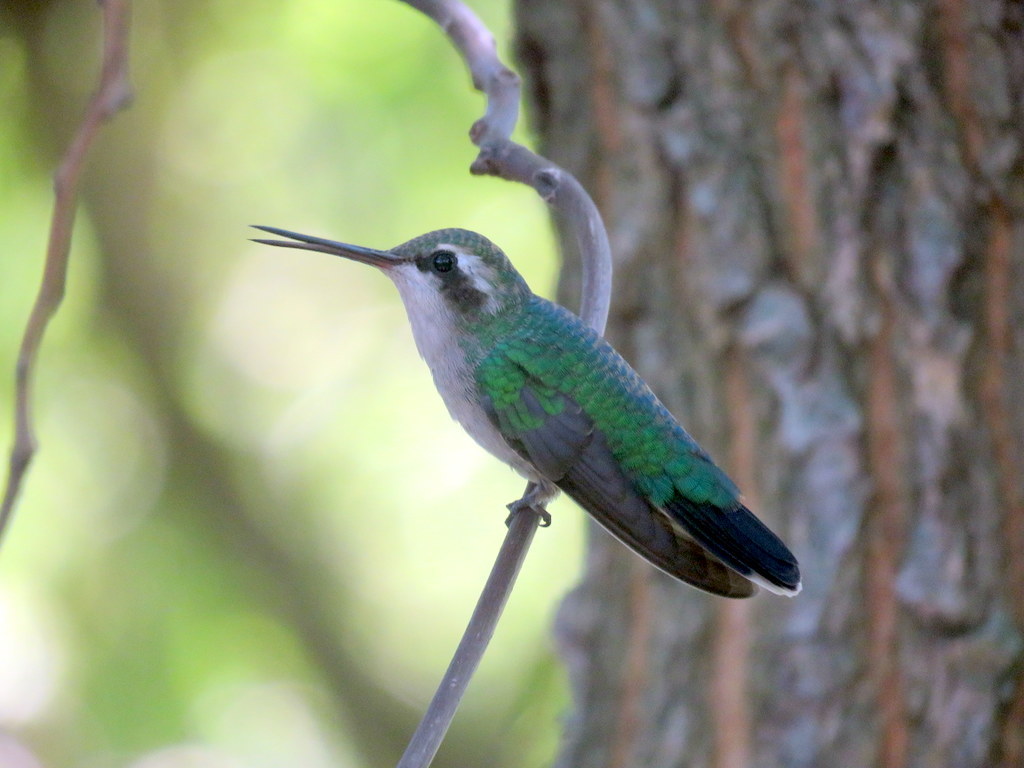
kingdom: Animalia
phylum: Chordata
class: Aves
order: Apodiformes
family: Trochilidae
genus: Chlorostilbon
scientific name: Chlorostilbon lucidus
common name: Glittering-bellied emerald
